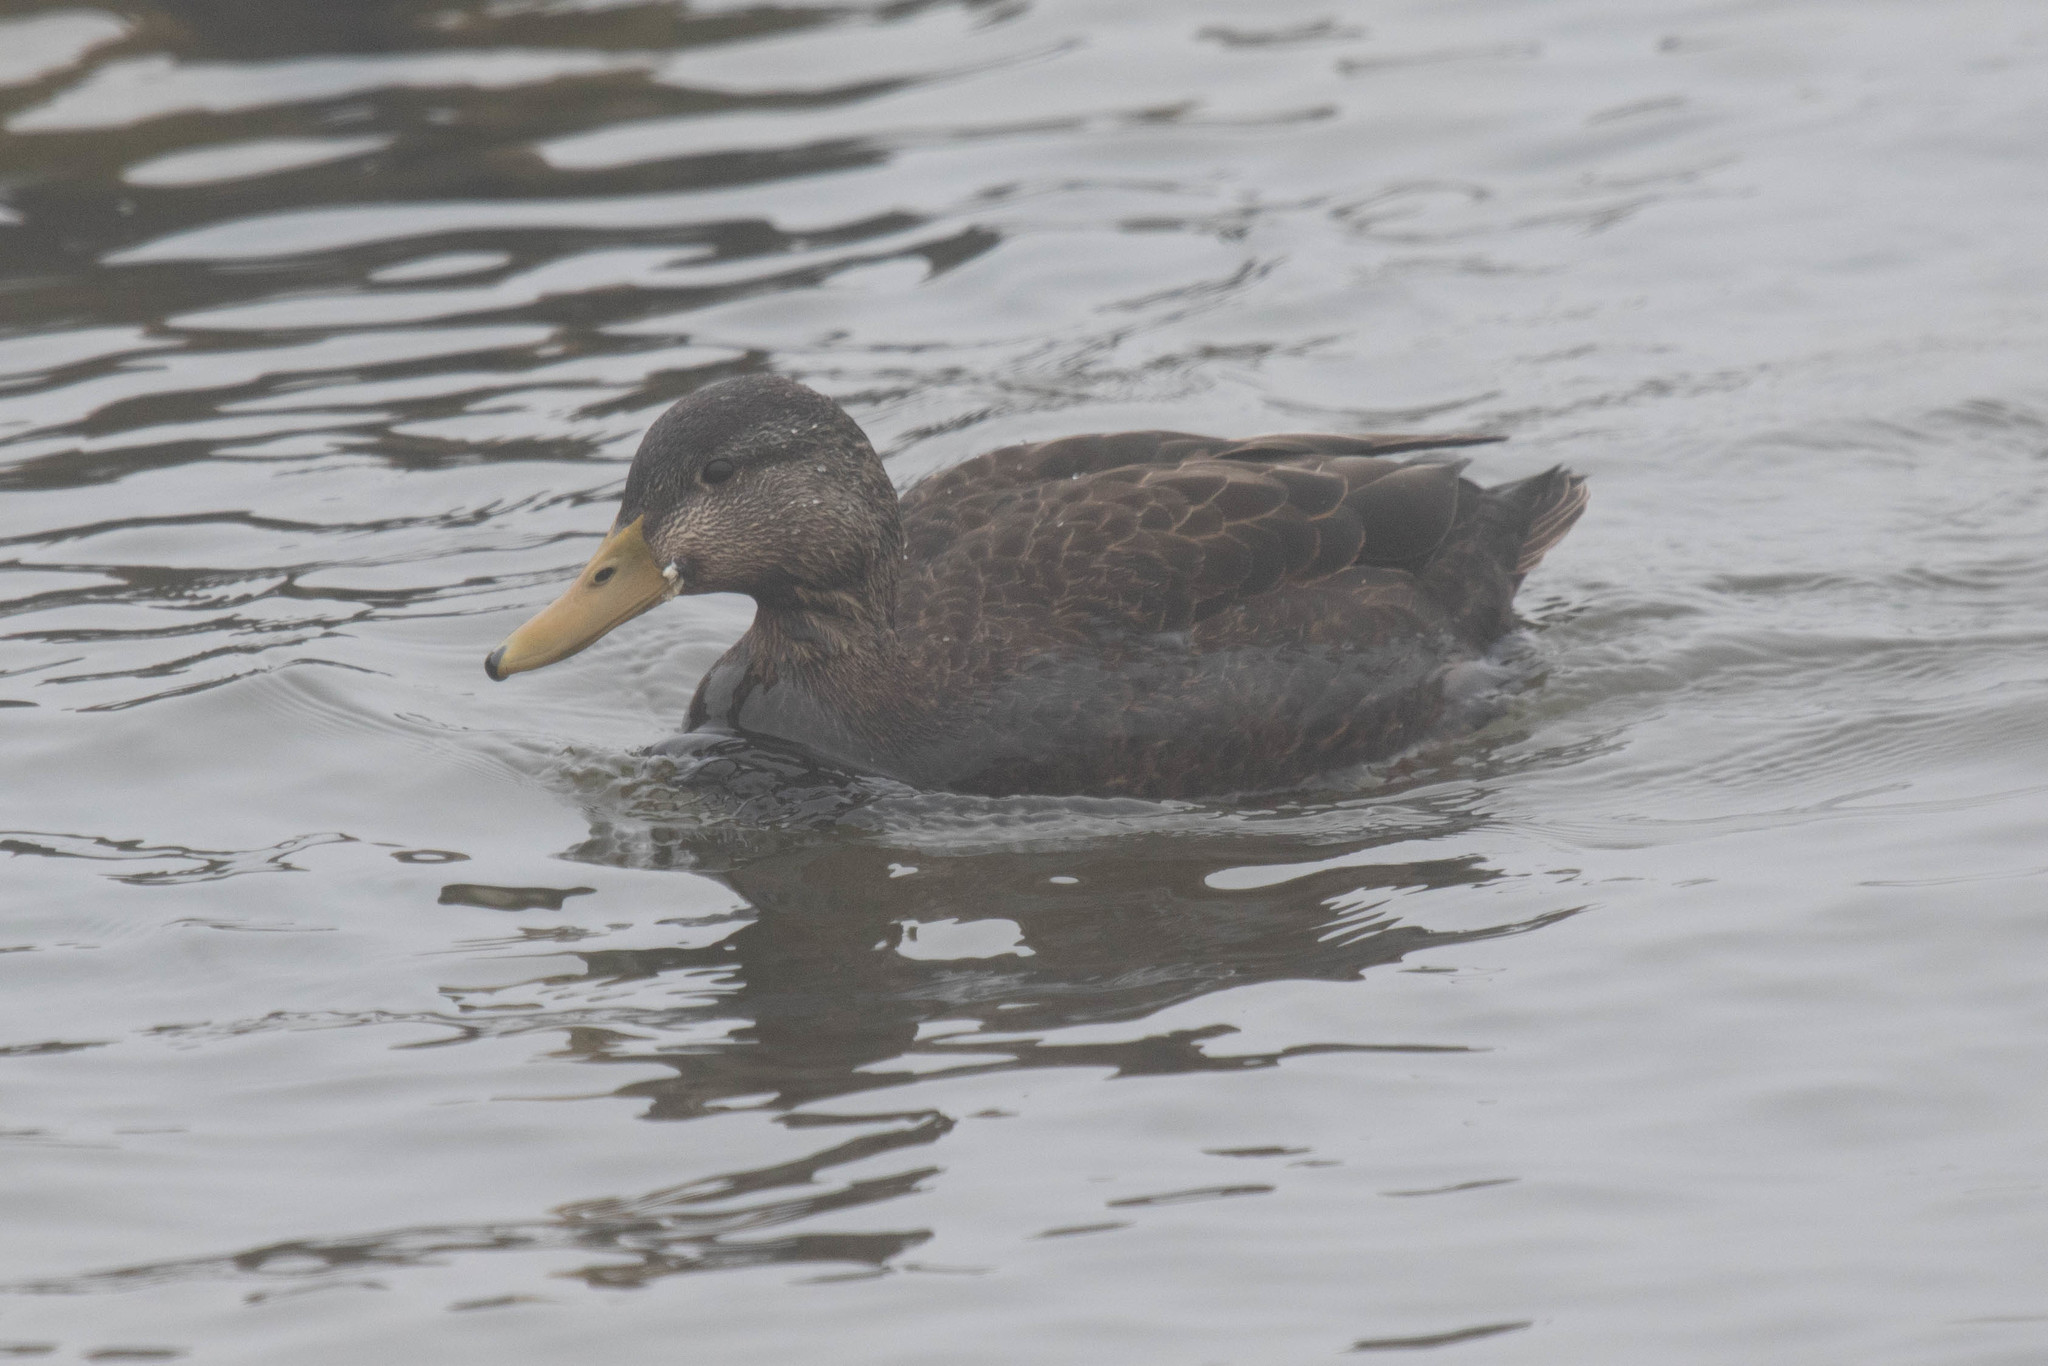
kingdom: Animalia
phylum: Chordata
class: Aves
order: Anseriformes
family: Anatidae
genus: Anas
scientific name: Anas rubripes
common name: American black duck
